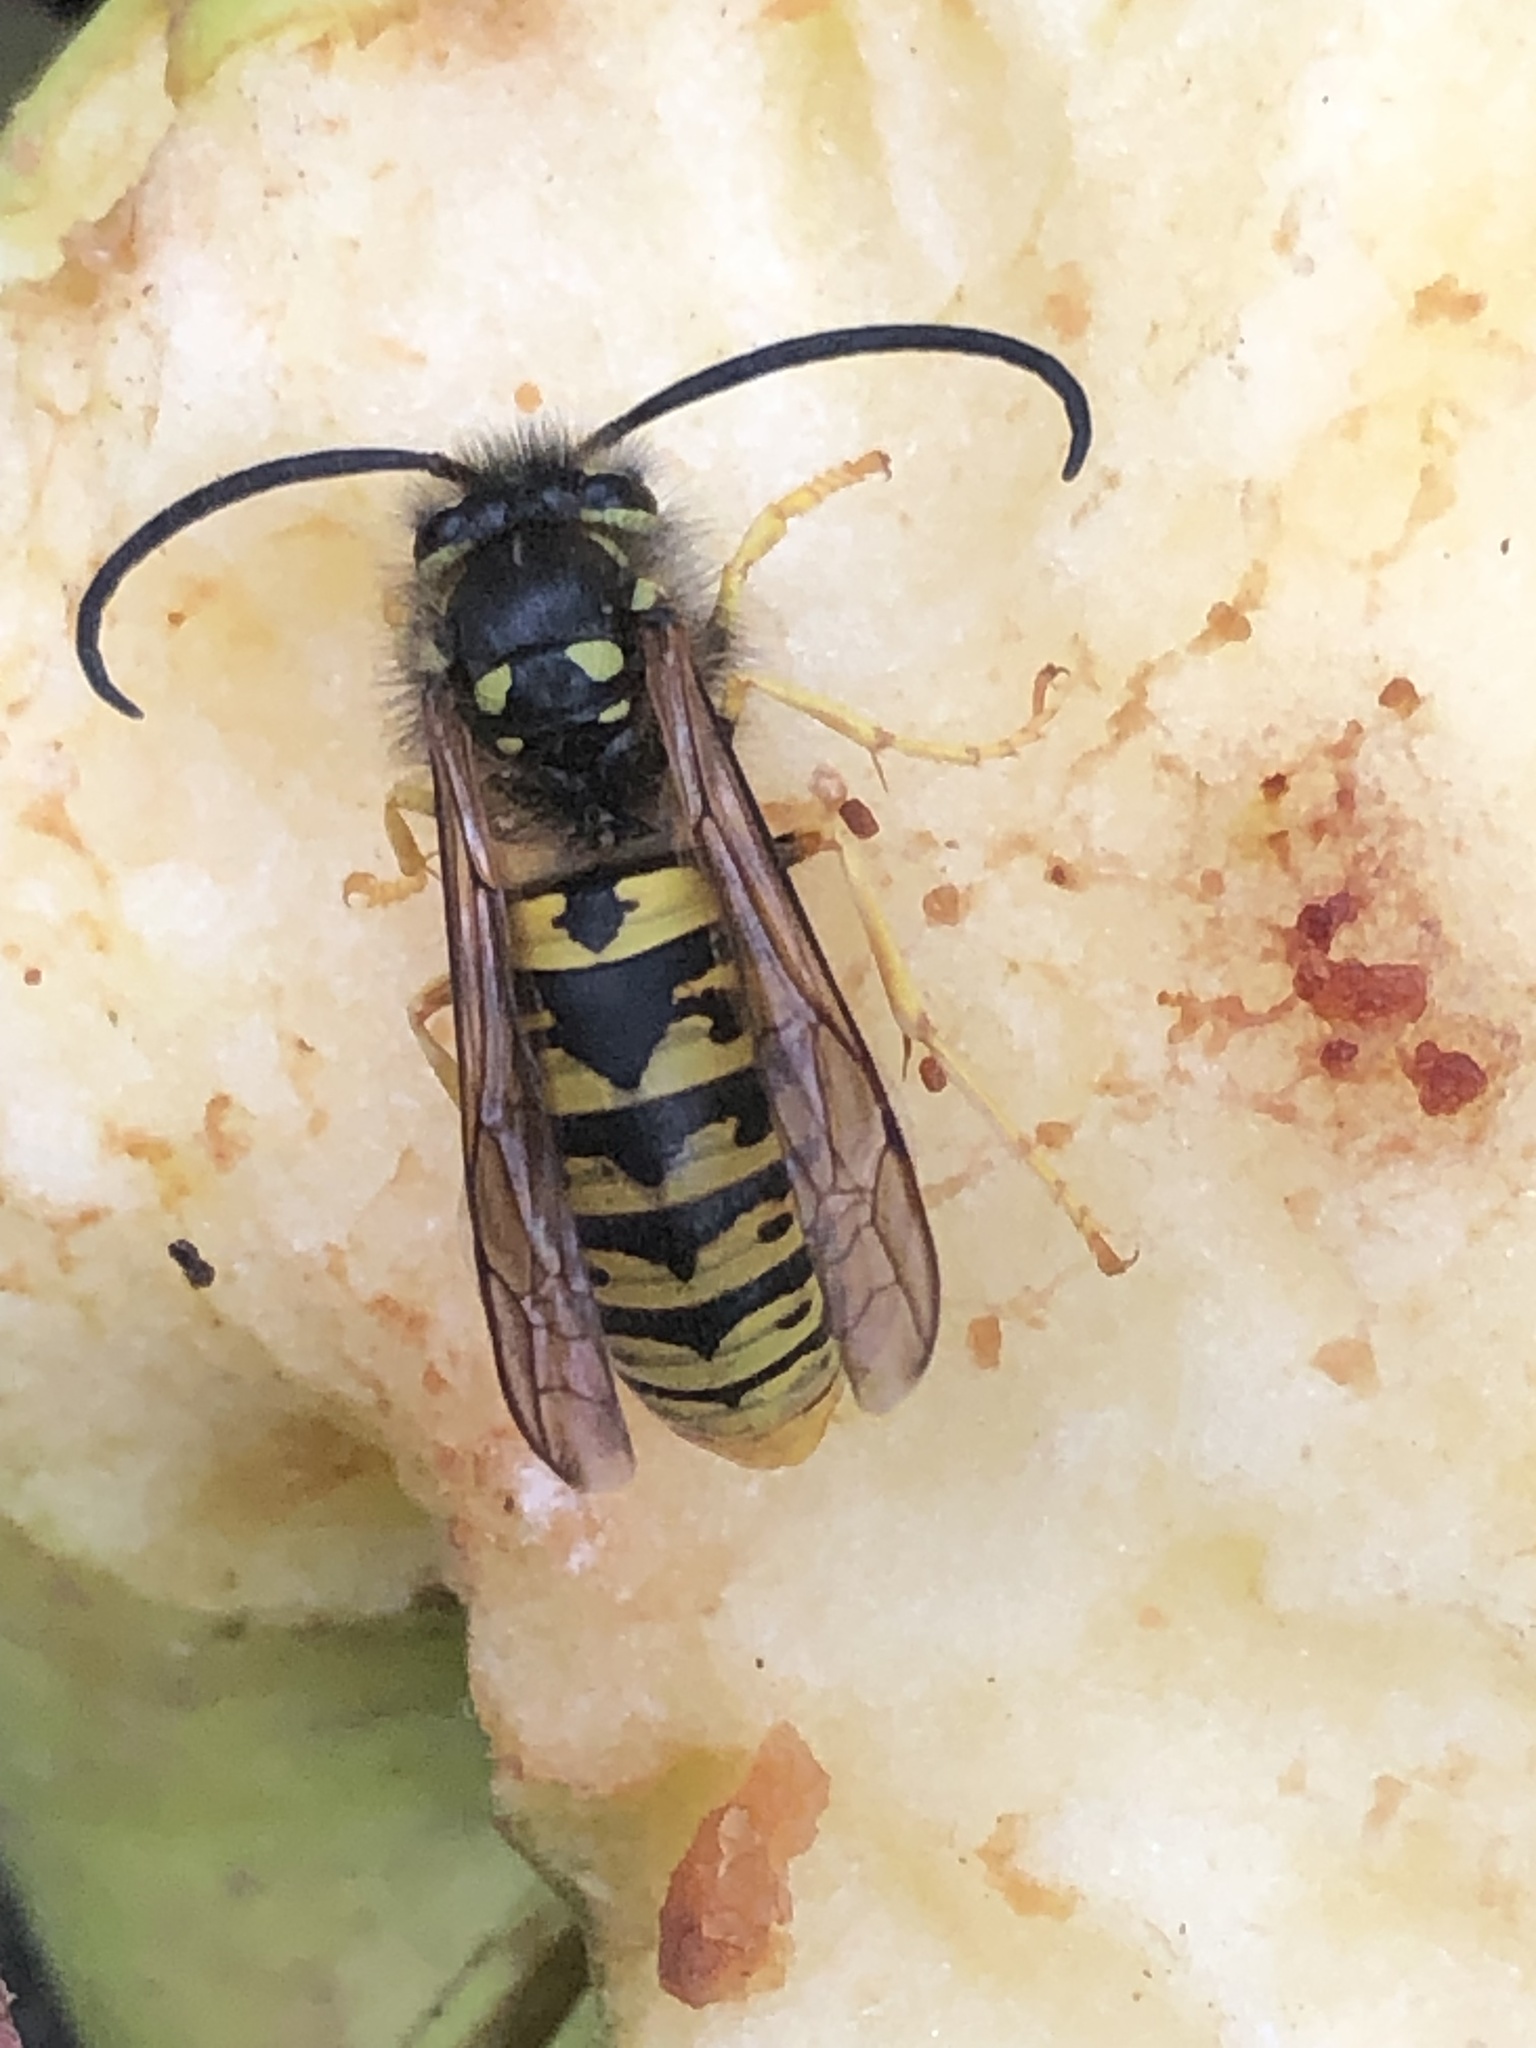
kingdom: Animalia
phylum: Arthropoda
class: Insecta
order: Hymenoptera
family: Vespidae
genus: Vespula
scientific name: Vespula germanica
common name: German wasp
